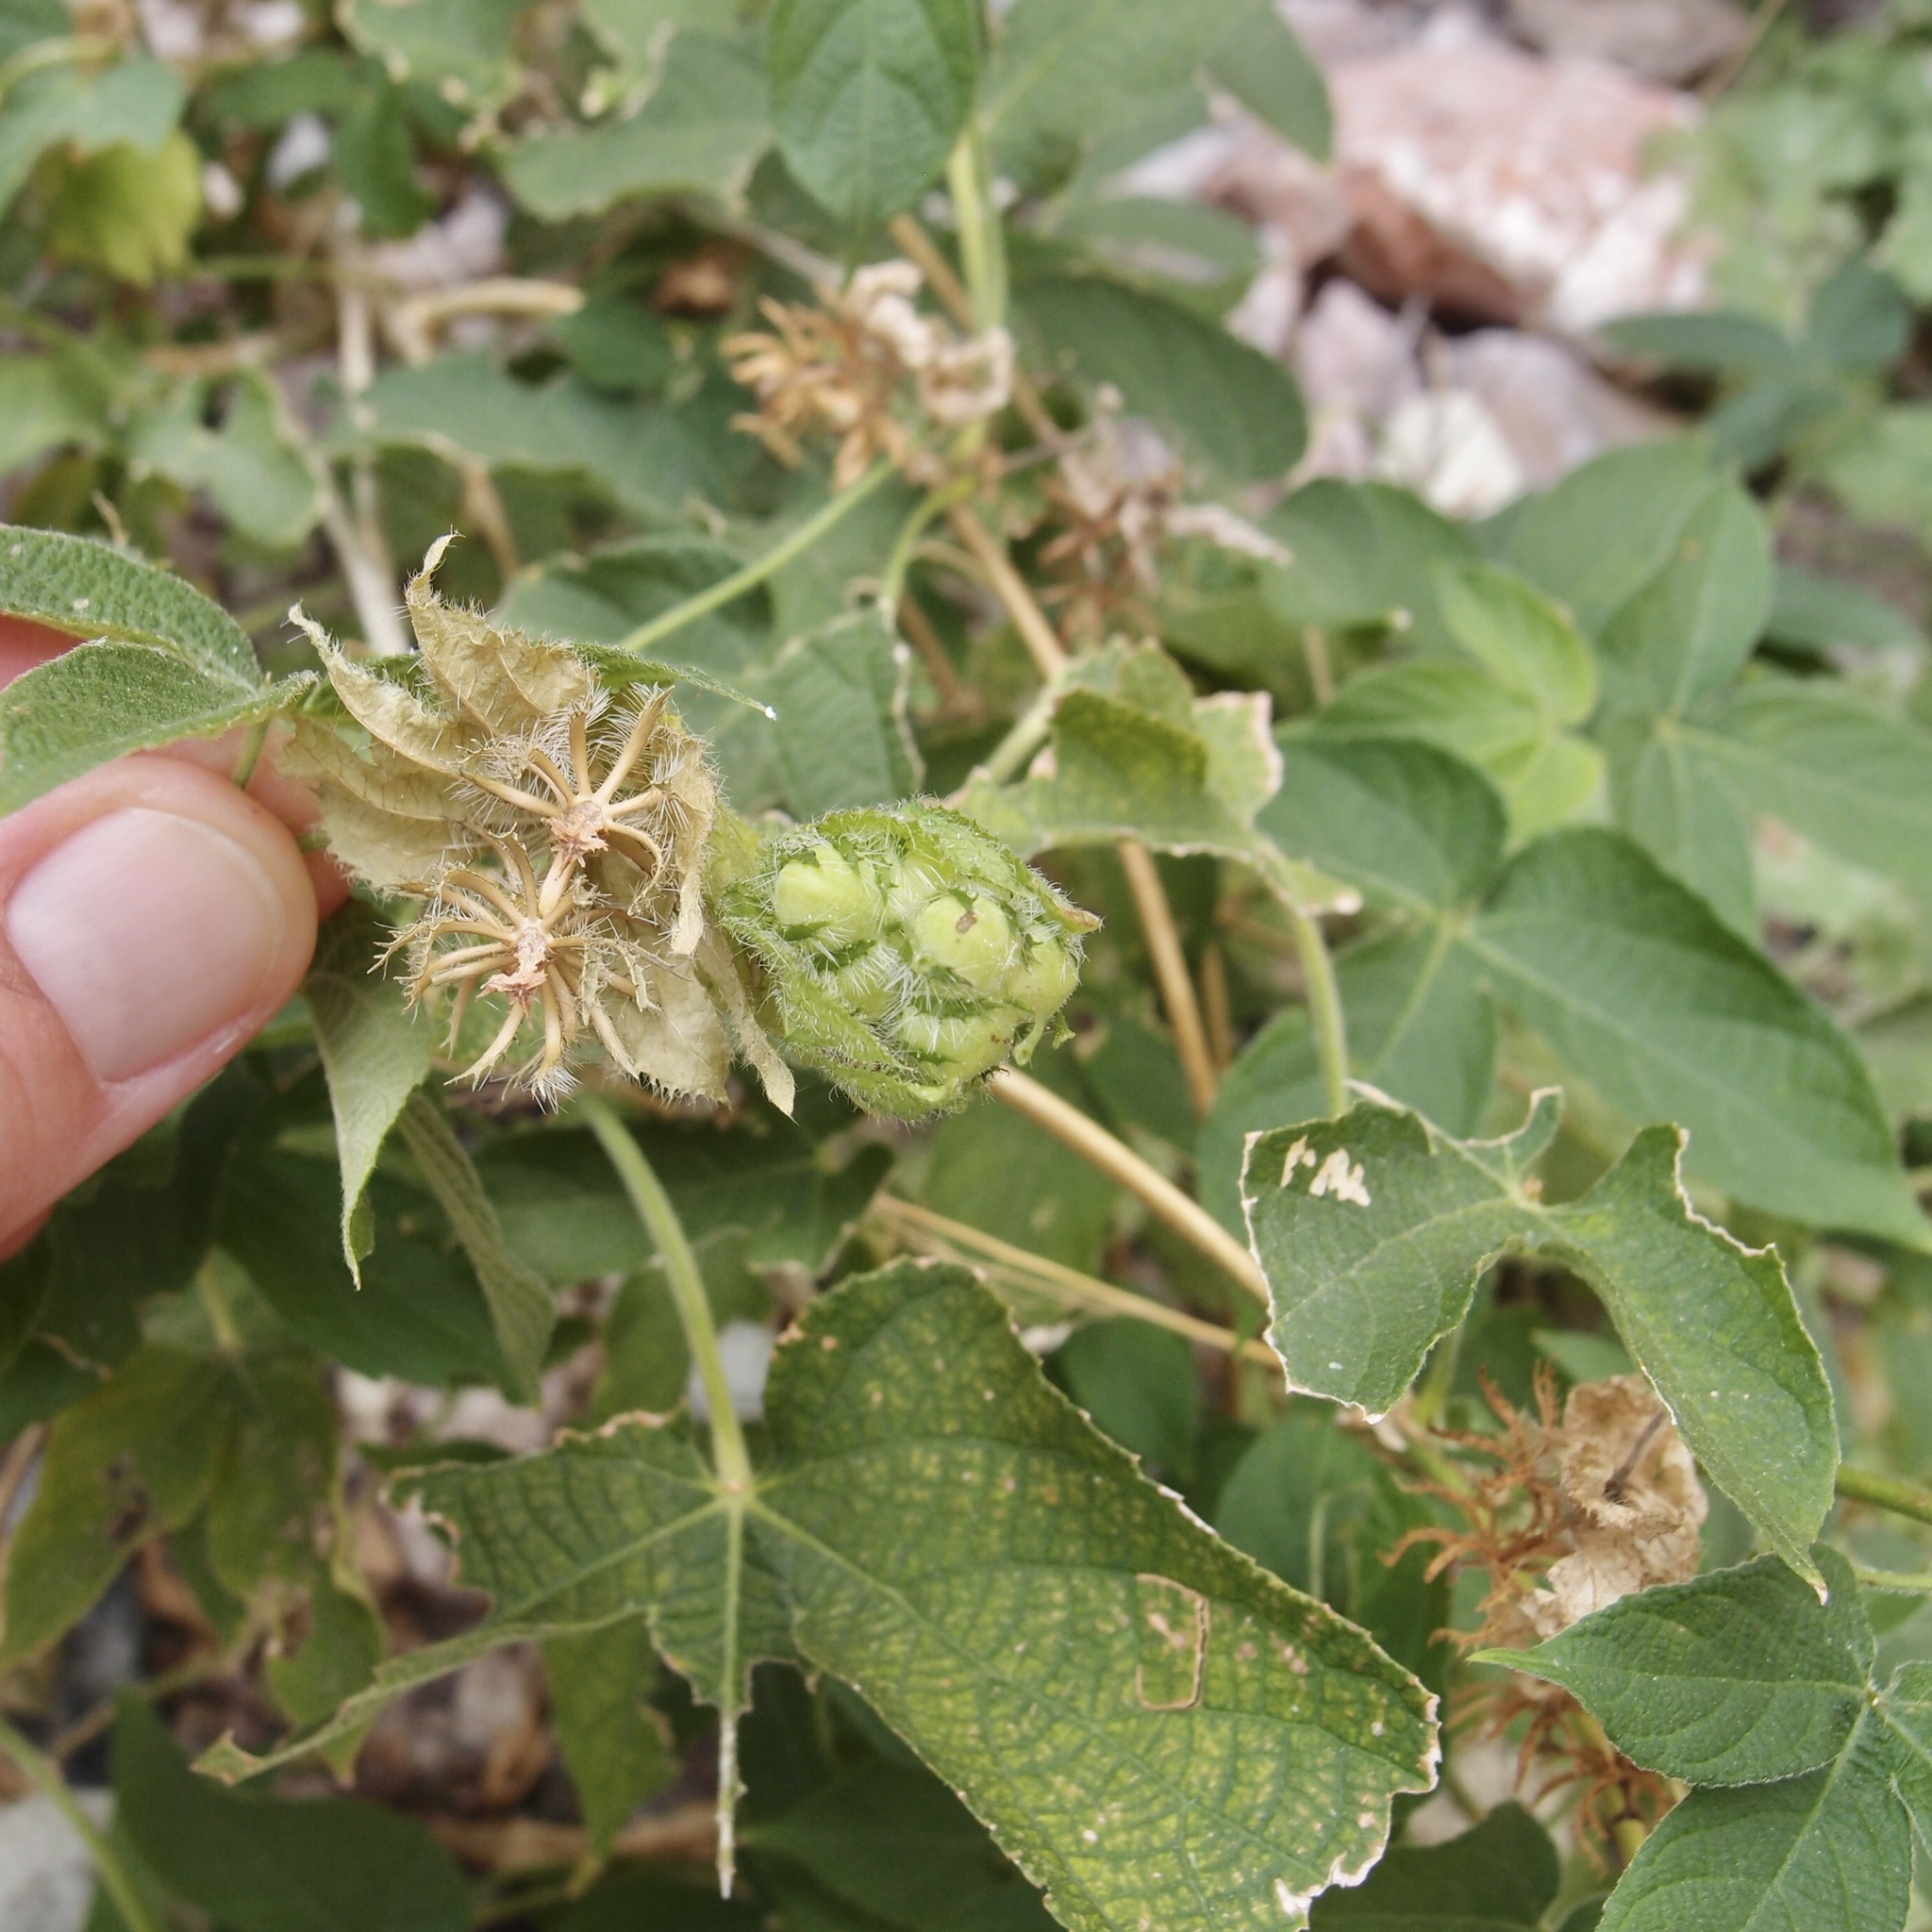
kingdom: Plantae
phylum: Tracheophyta
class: Magnoliopsida
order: Malpighiales
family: Euphorbiaceae
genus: Dalechampia
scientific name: Dalechampia scandens
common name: Spurgecreeper
